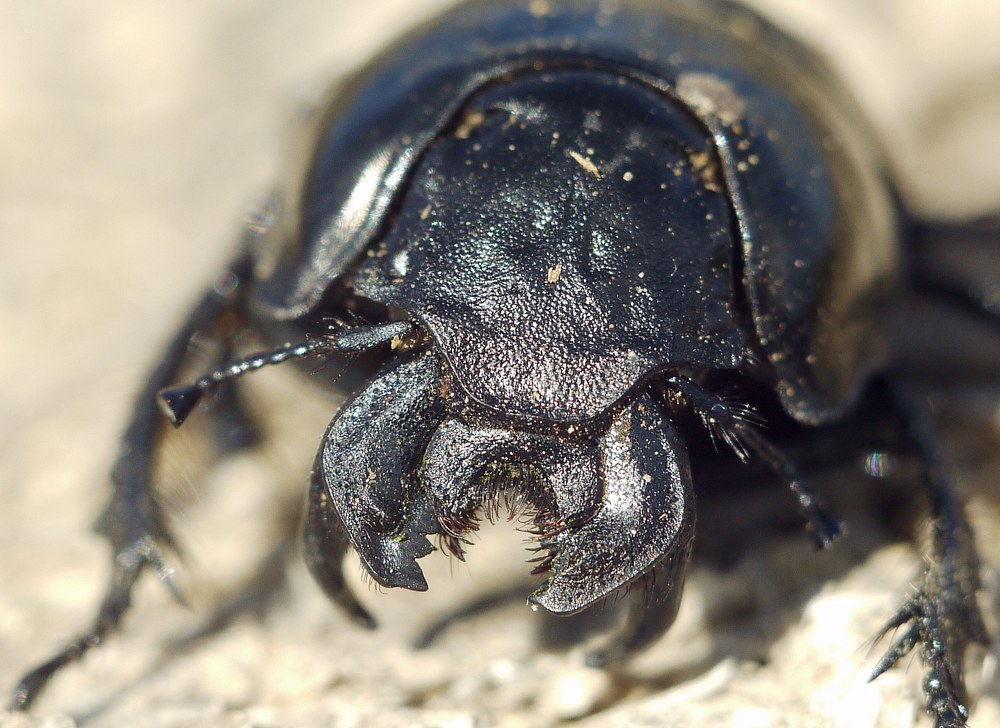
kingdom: Animalia
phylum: Arthropoda
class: Insecta
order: Coleoptera
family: Geotrupidae
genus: Lethrus
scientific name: Lethrus apterus
